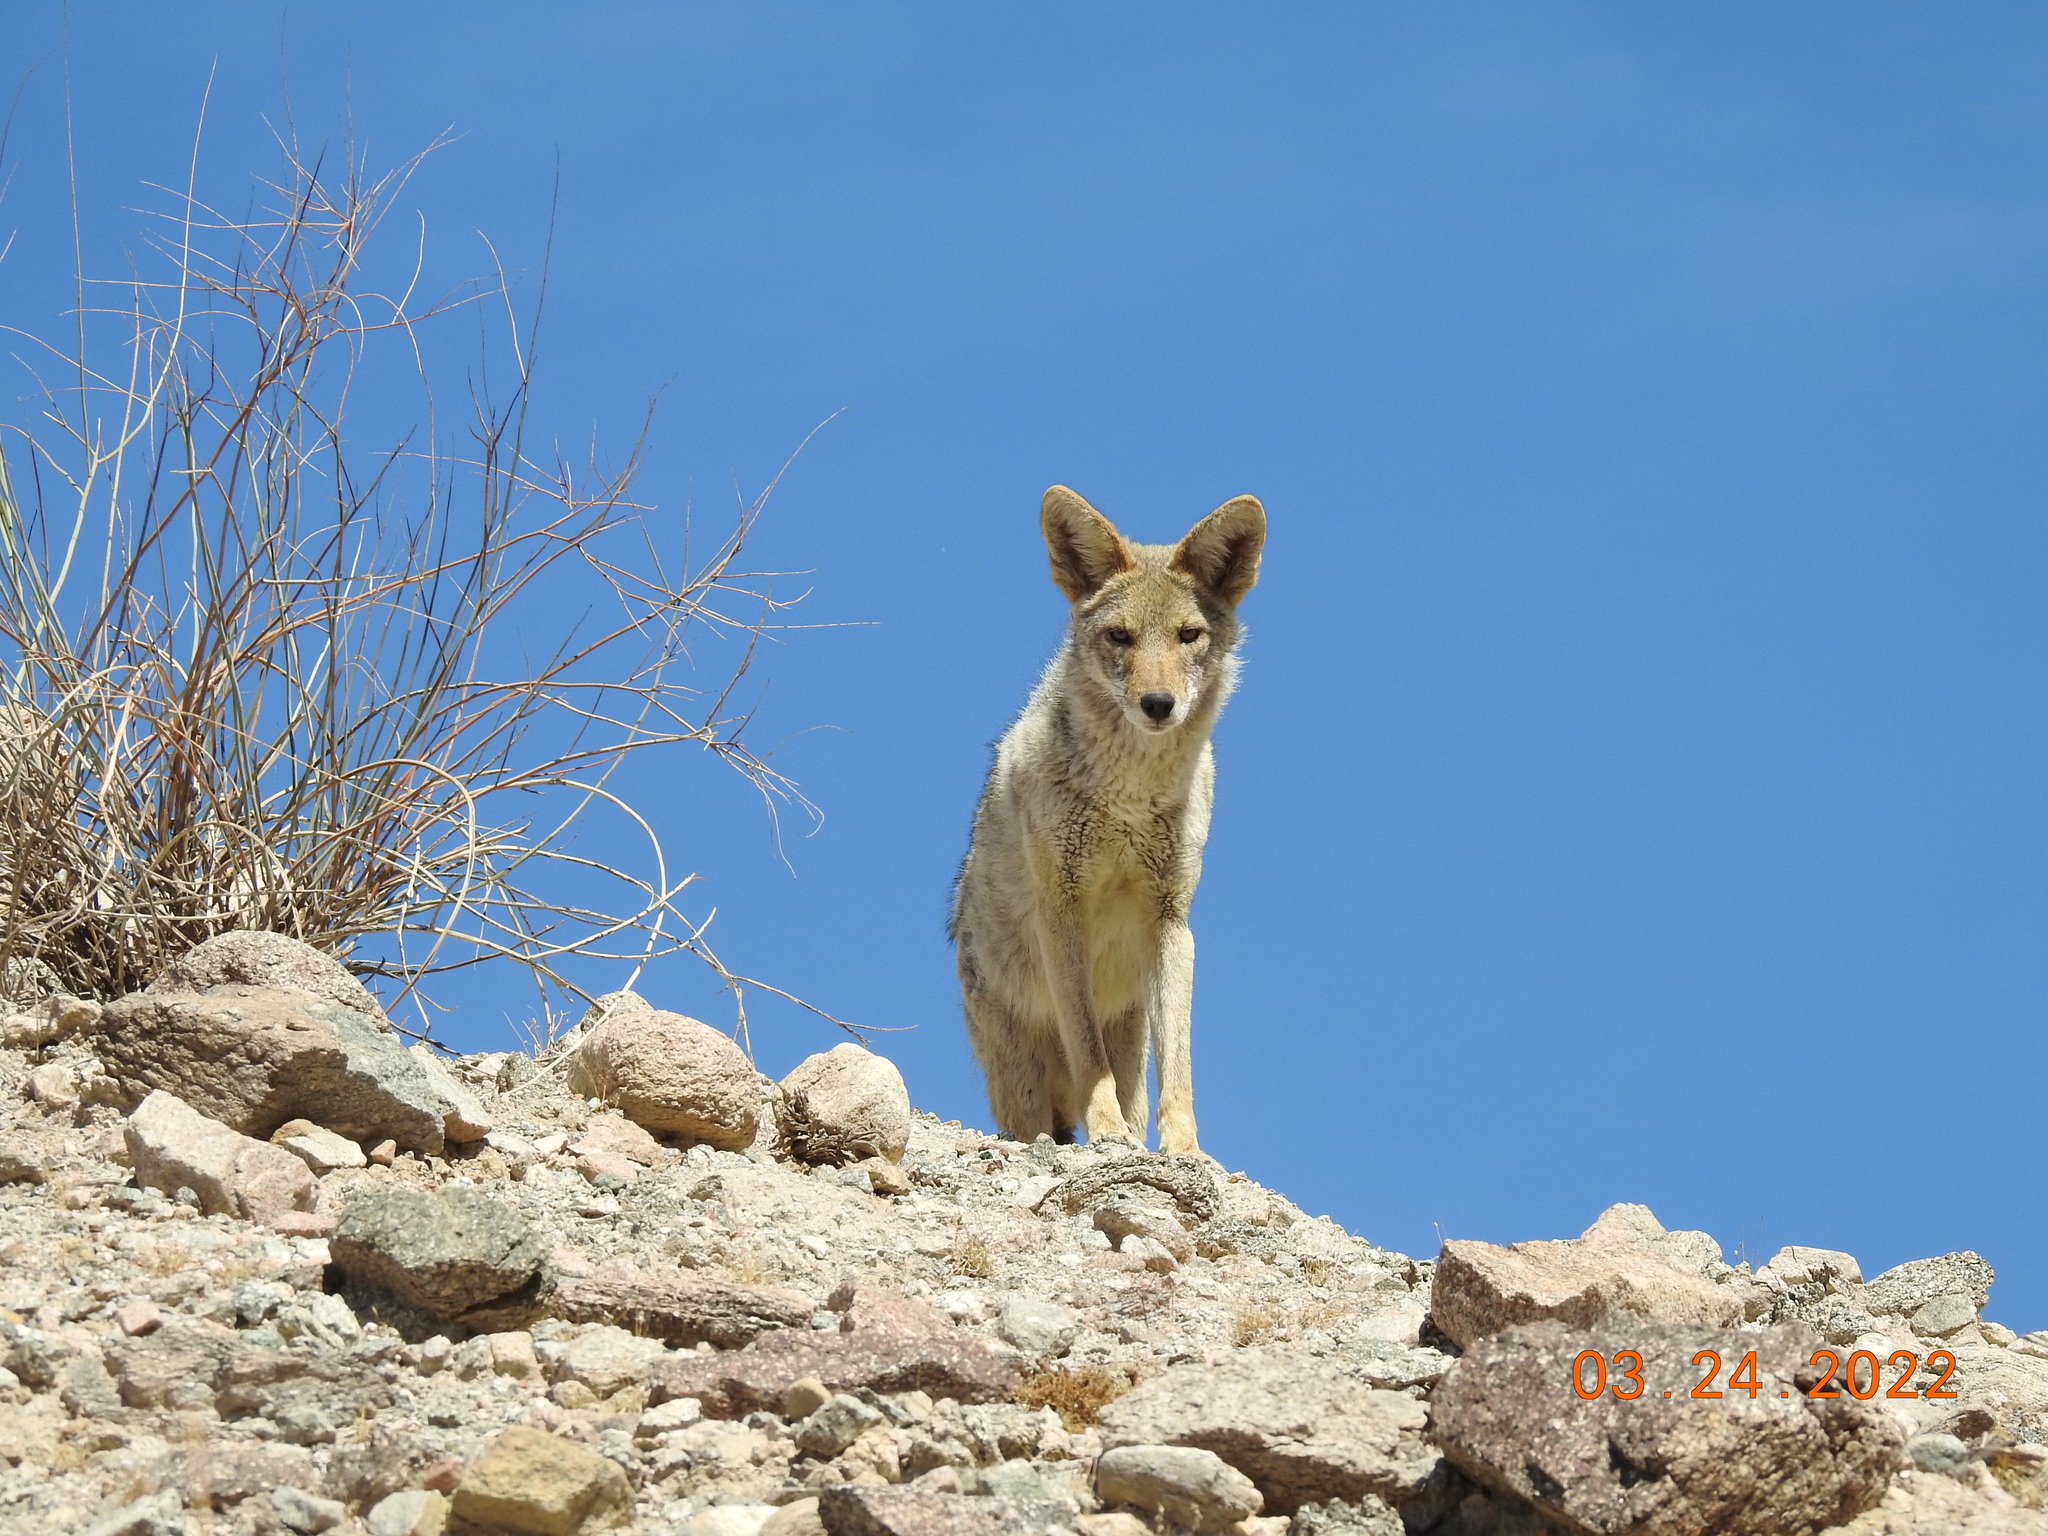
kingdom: Animalia
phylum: Chordata
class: Mammalia
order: Carnivora
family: Canidae
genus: Canis
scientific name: Canis latrans
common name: Coyote
